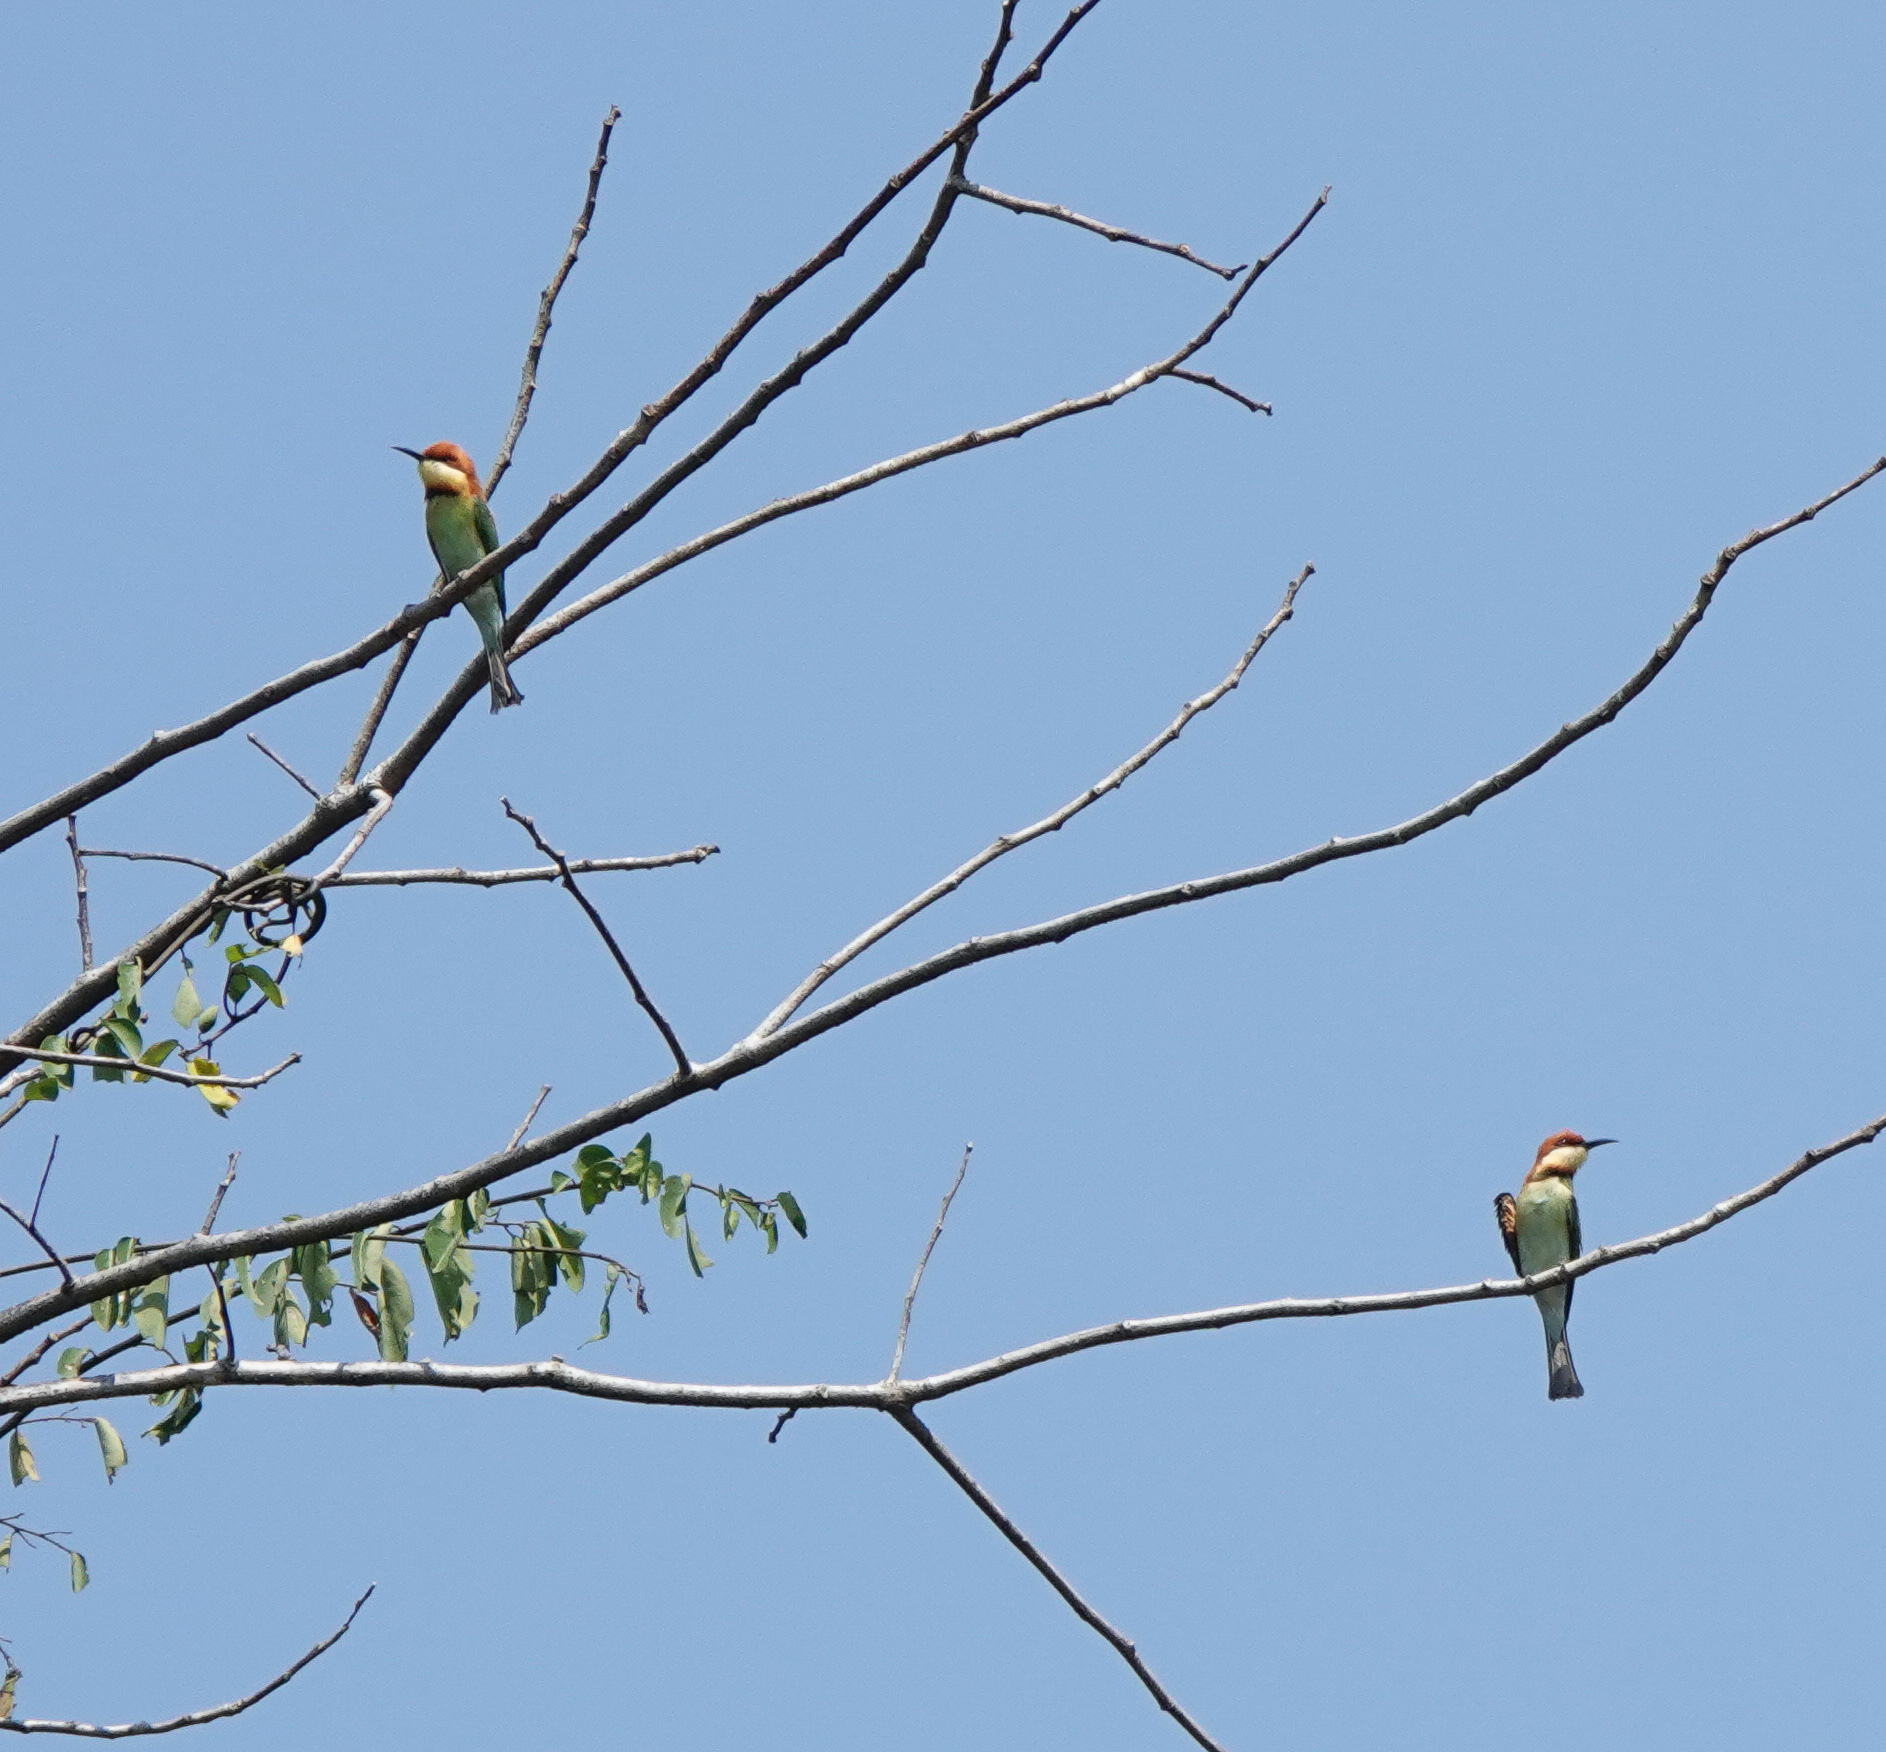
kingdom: Animalia
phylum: Chordata
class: Aves
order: Coraciiformes
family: Meropidae
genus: Merops
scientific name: Merops leschenaulti
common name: Chestnut-headed bee-eater
